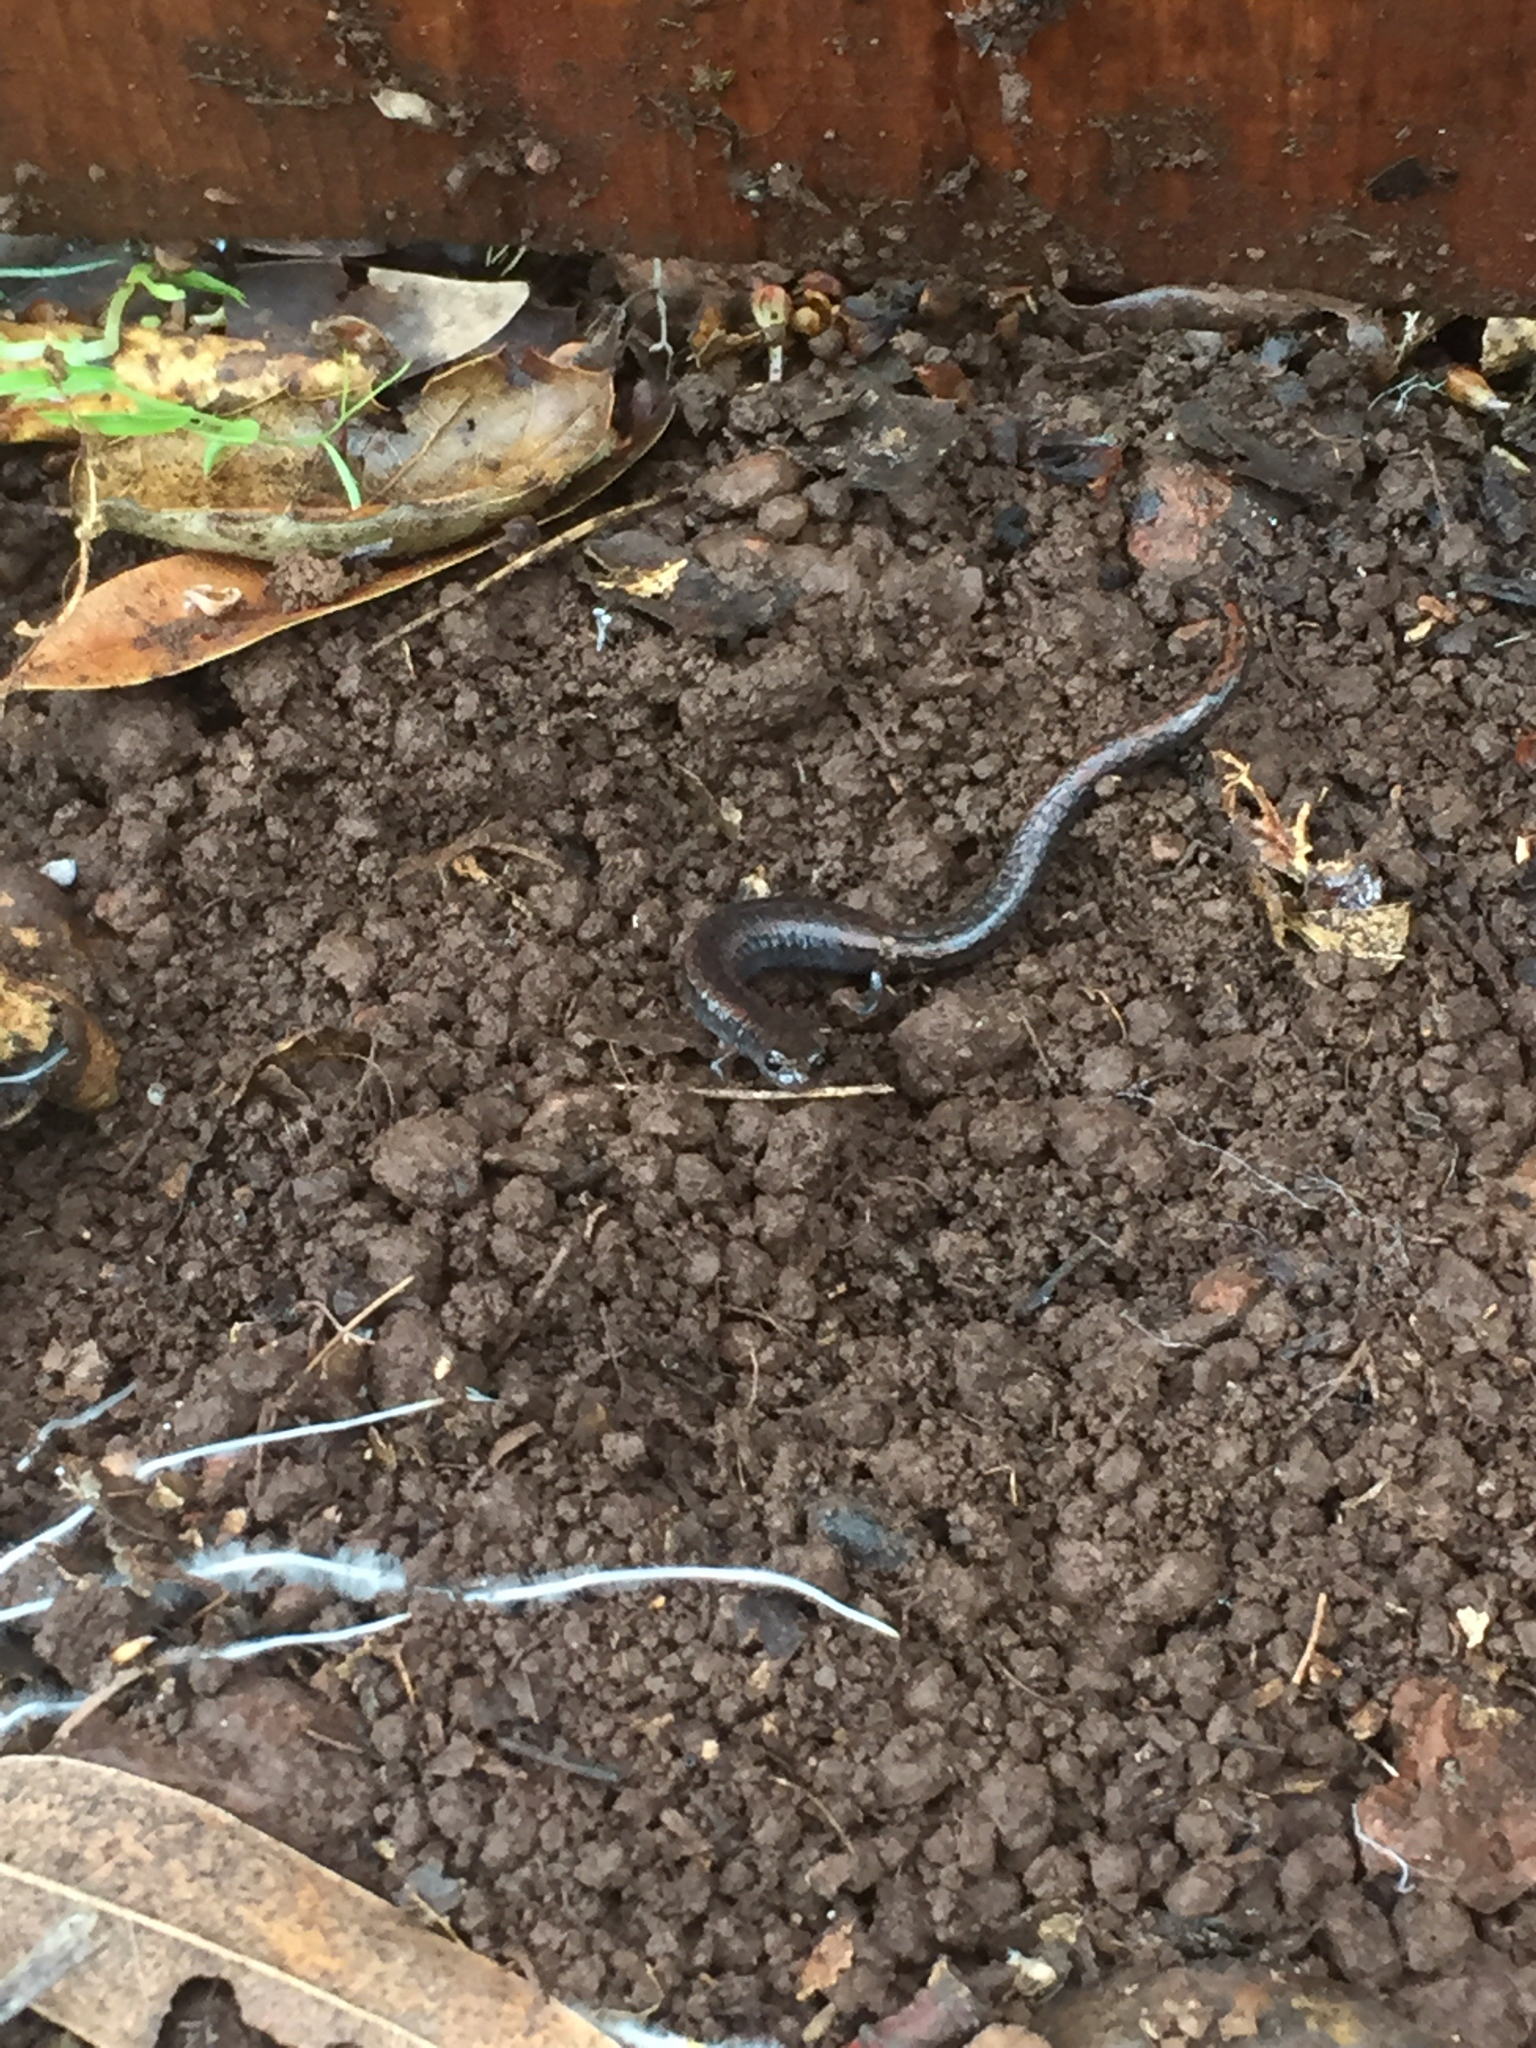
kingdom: Animalia
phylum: Chordata
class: Amphibia
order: Caudata
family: Plethodontidae
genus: Batrachoseps
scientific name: Batrachoseps attenuatus
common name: California slender salamander
